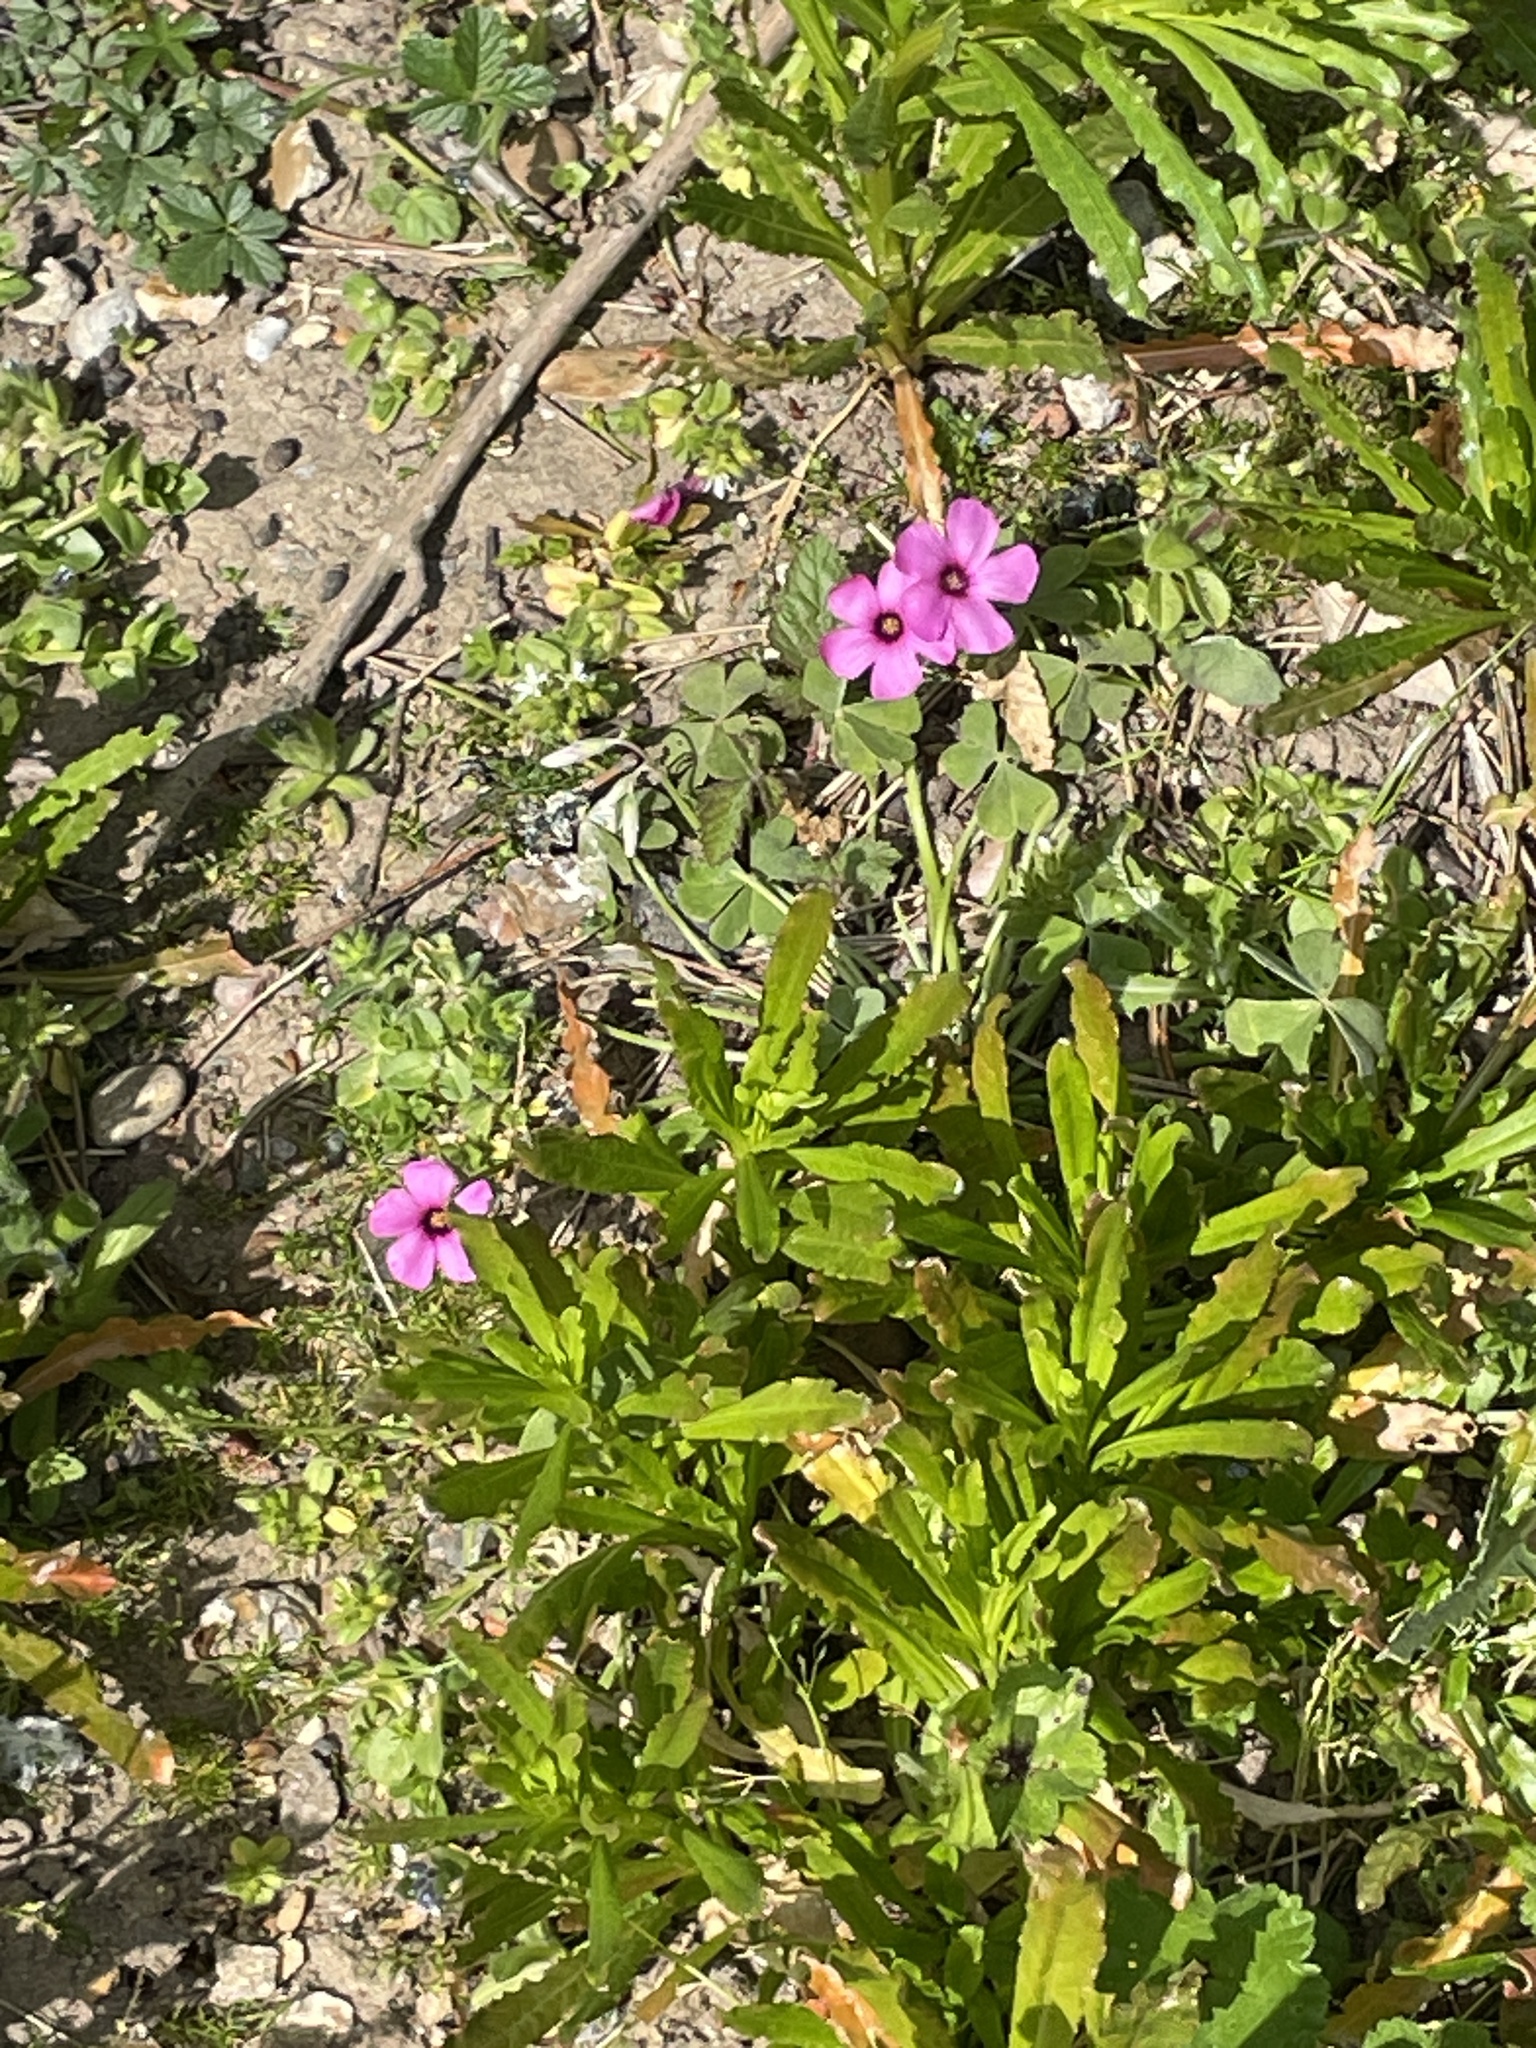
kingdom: Plantae
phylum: Tracheophyta
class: Magnoliopsida
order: Oxalidales
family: Oxalidaceae
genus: Oxalis
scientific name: Oxalis articulata
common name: Pink-sorrel
